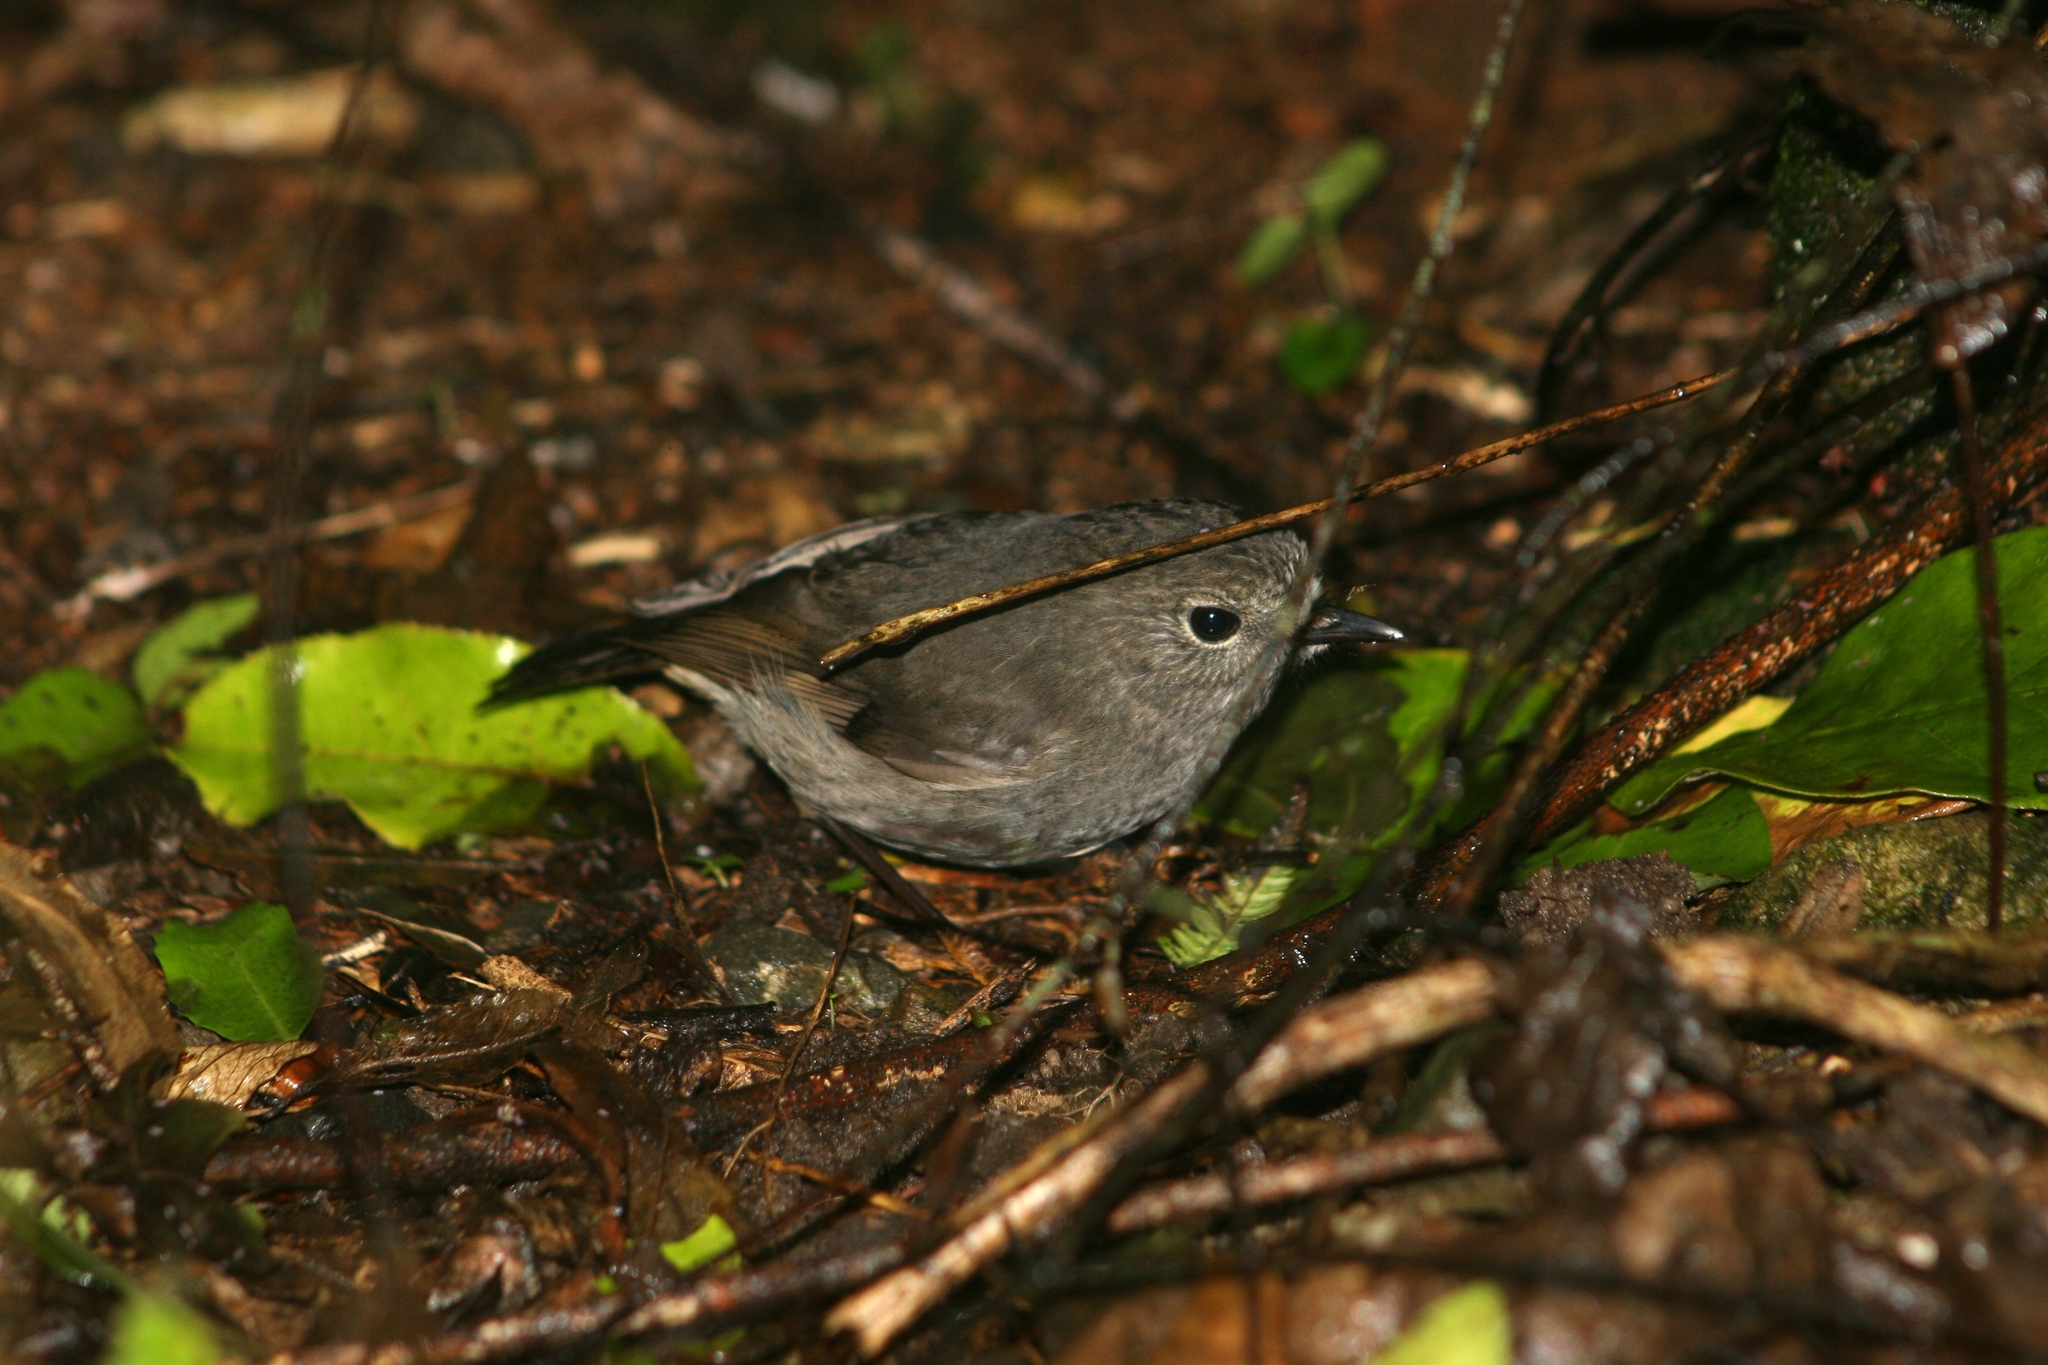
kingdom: Animalia
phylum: Chordata
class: Aves
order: Passeriformes
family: Petroicidae
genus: Petroica
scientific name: Petroica australis
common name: New zealand robin
